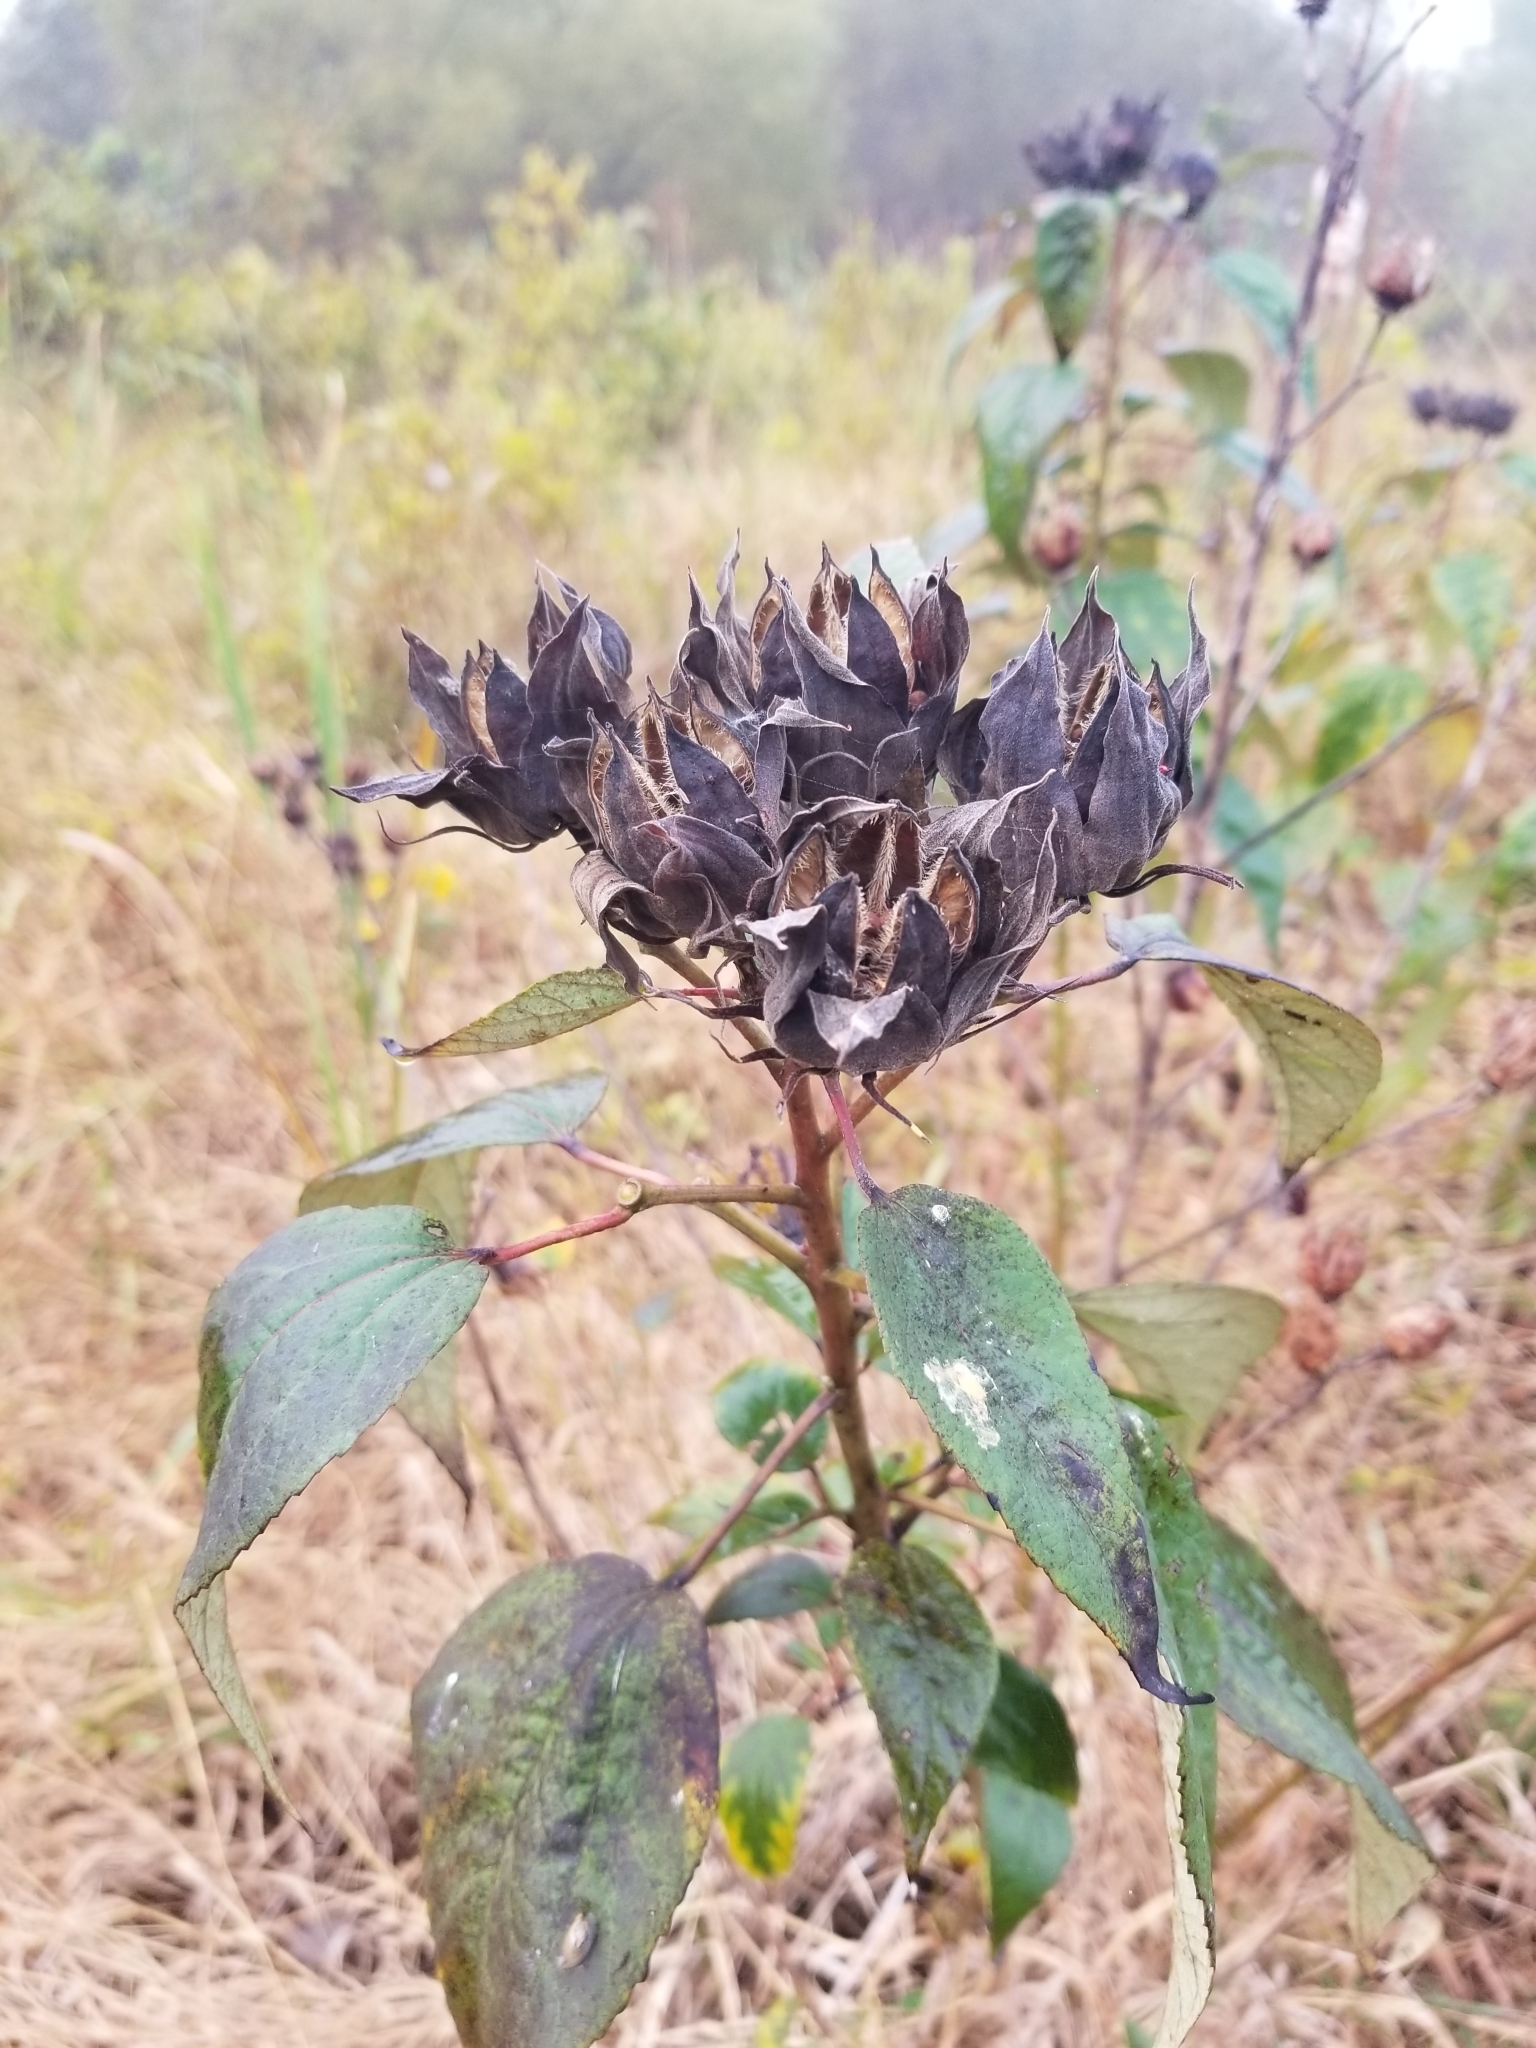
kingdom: Plantae
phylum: Tracheophyta
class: Magnoliopsida
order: Malvales
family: Malvaceae
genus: Hibiscus
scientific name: Hibiscus moscheutos
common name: Common rose-mallow
